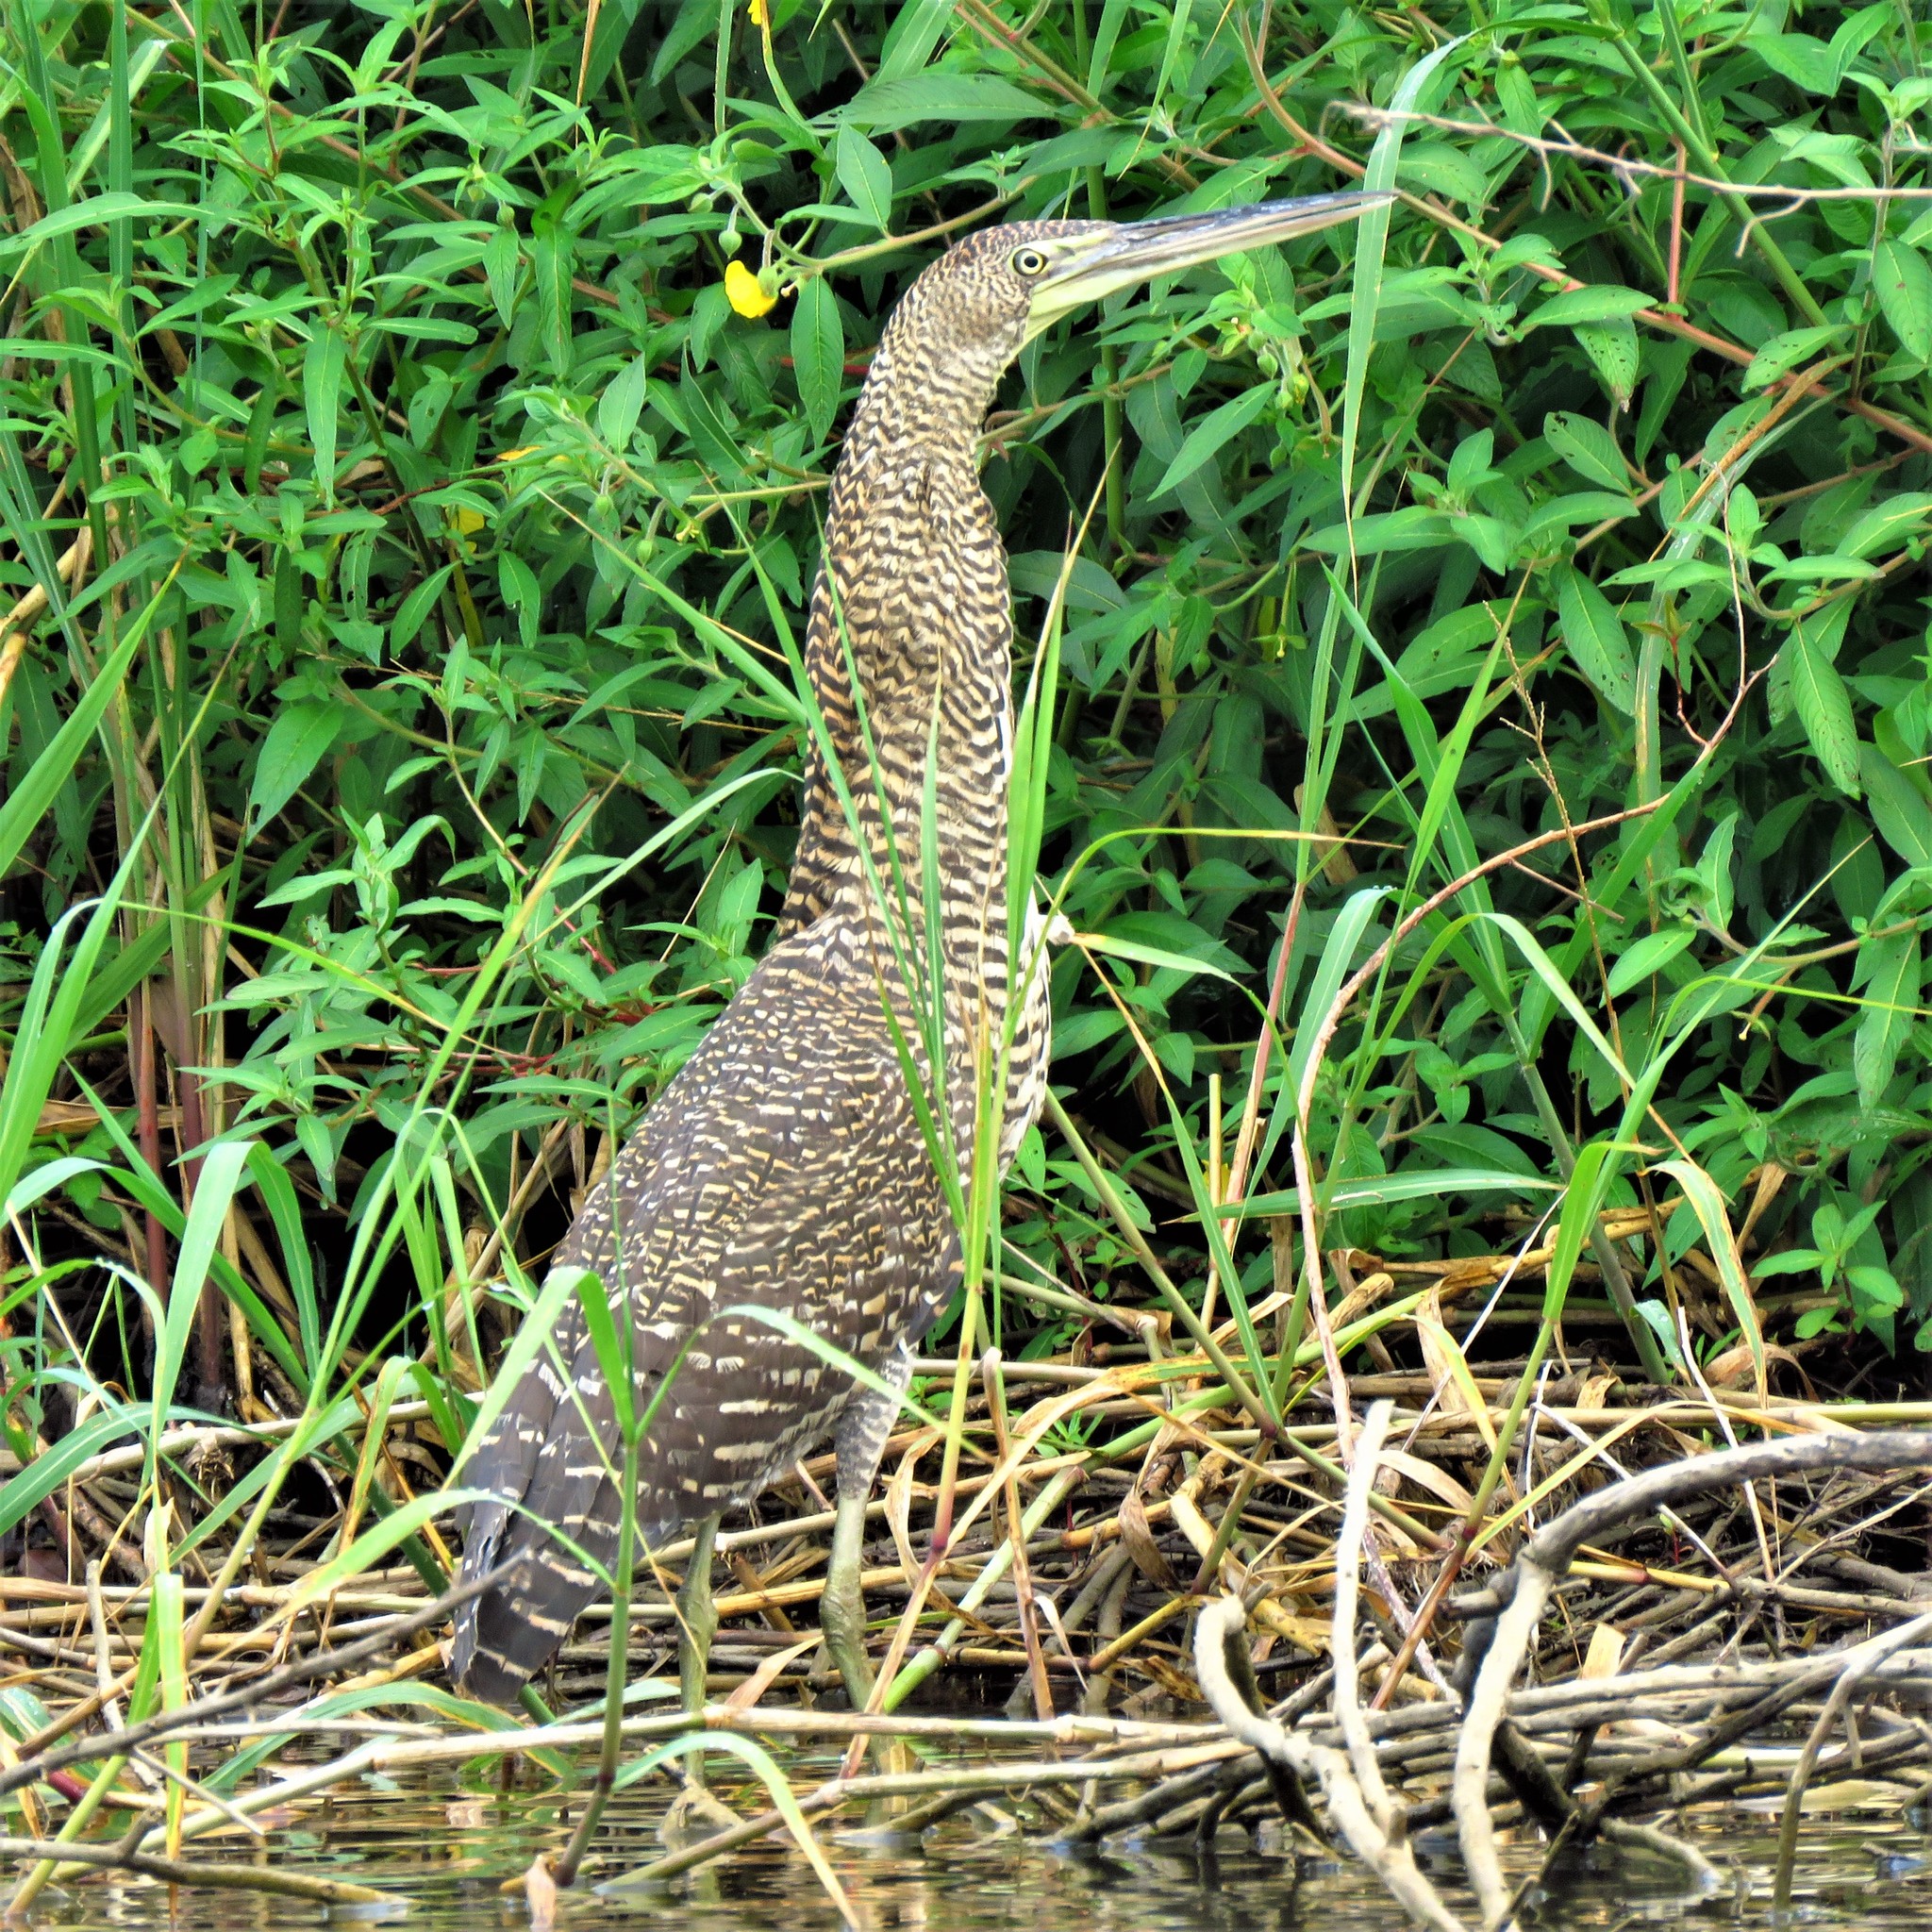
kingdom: Animalia
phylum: Chordata
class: Aves
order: Pelecaniformes
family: Ardeidae
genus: Tigrisoma
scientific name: Tigrisoma mexicanum
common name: Bare-throated tiger-heron
